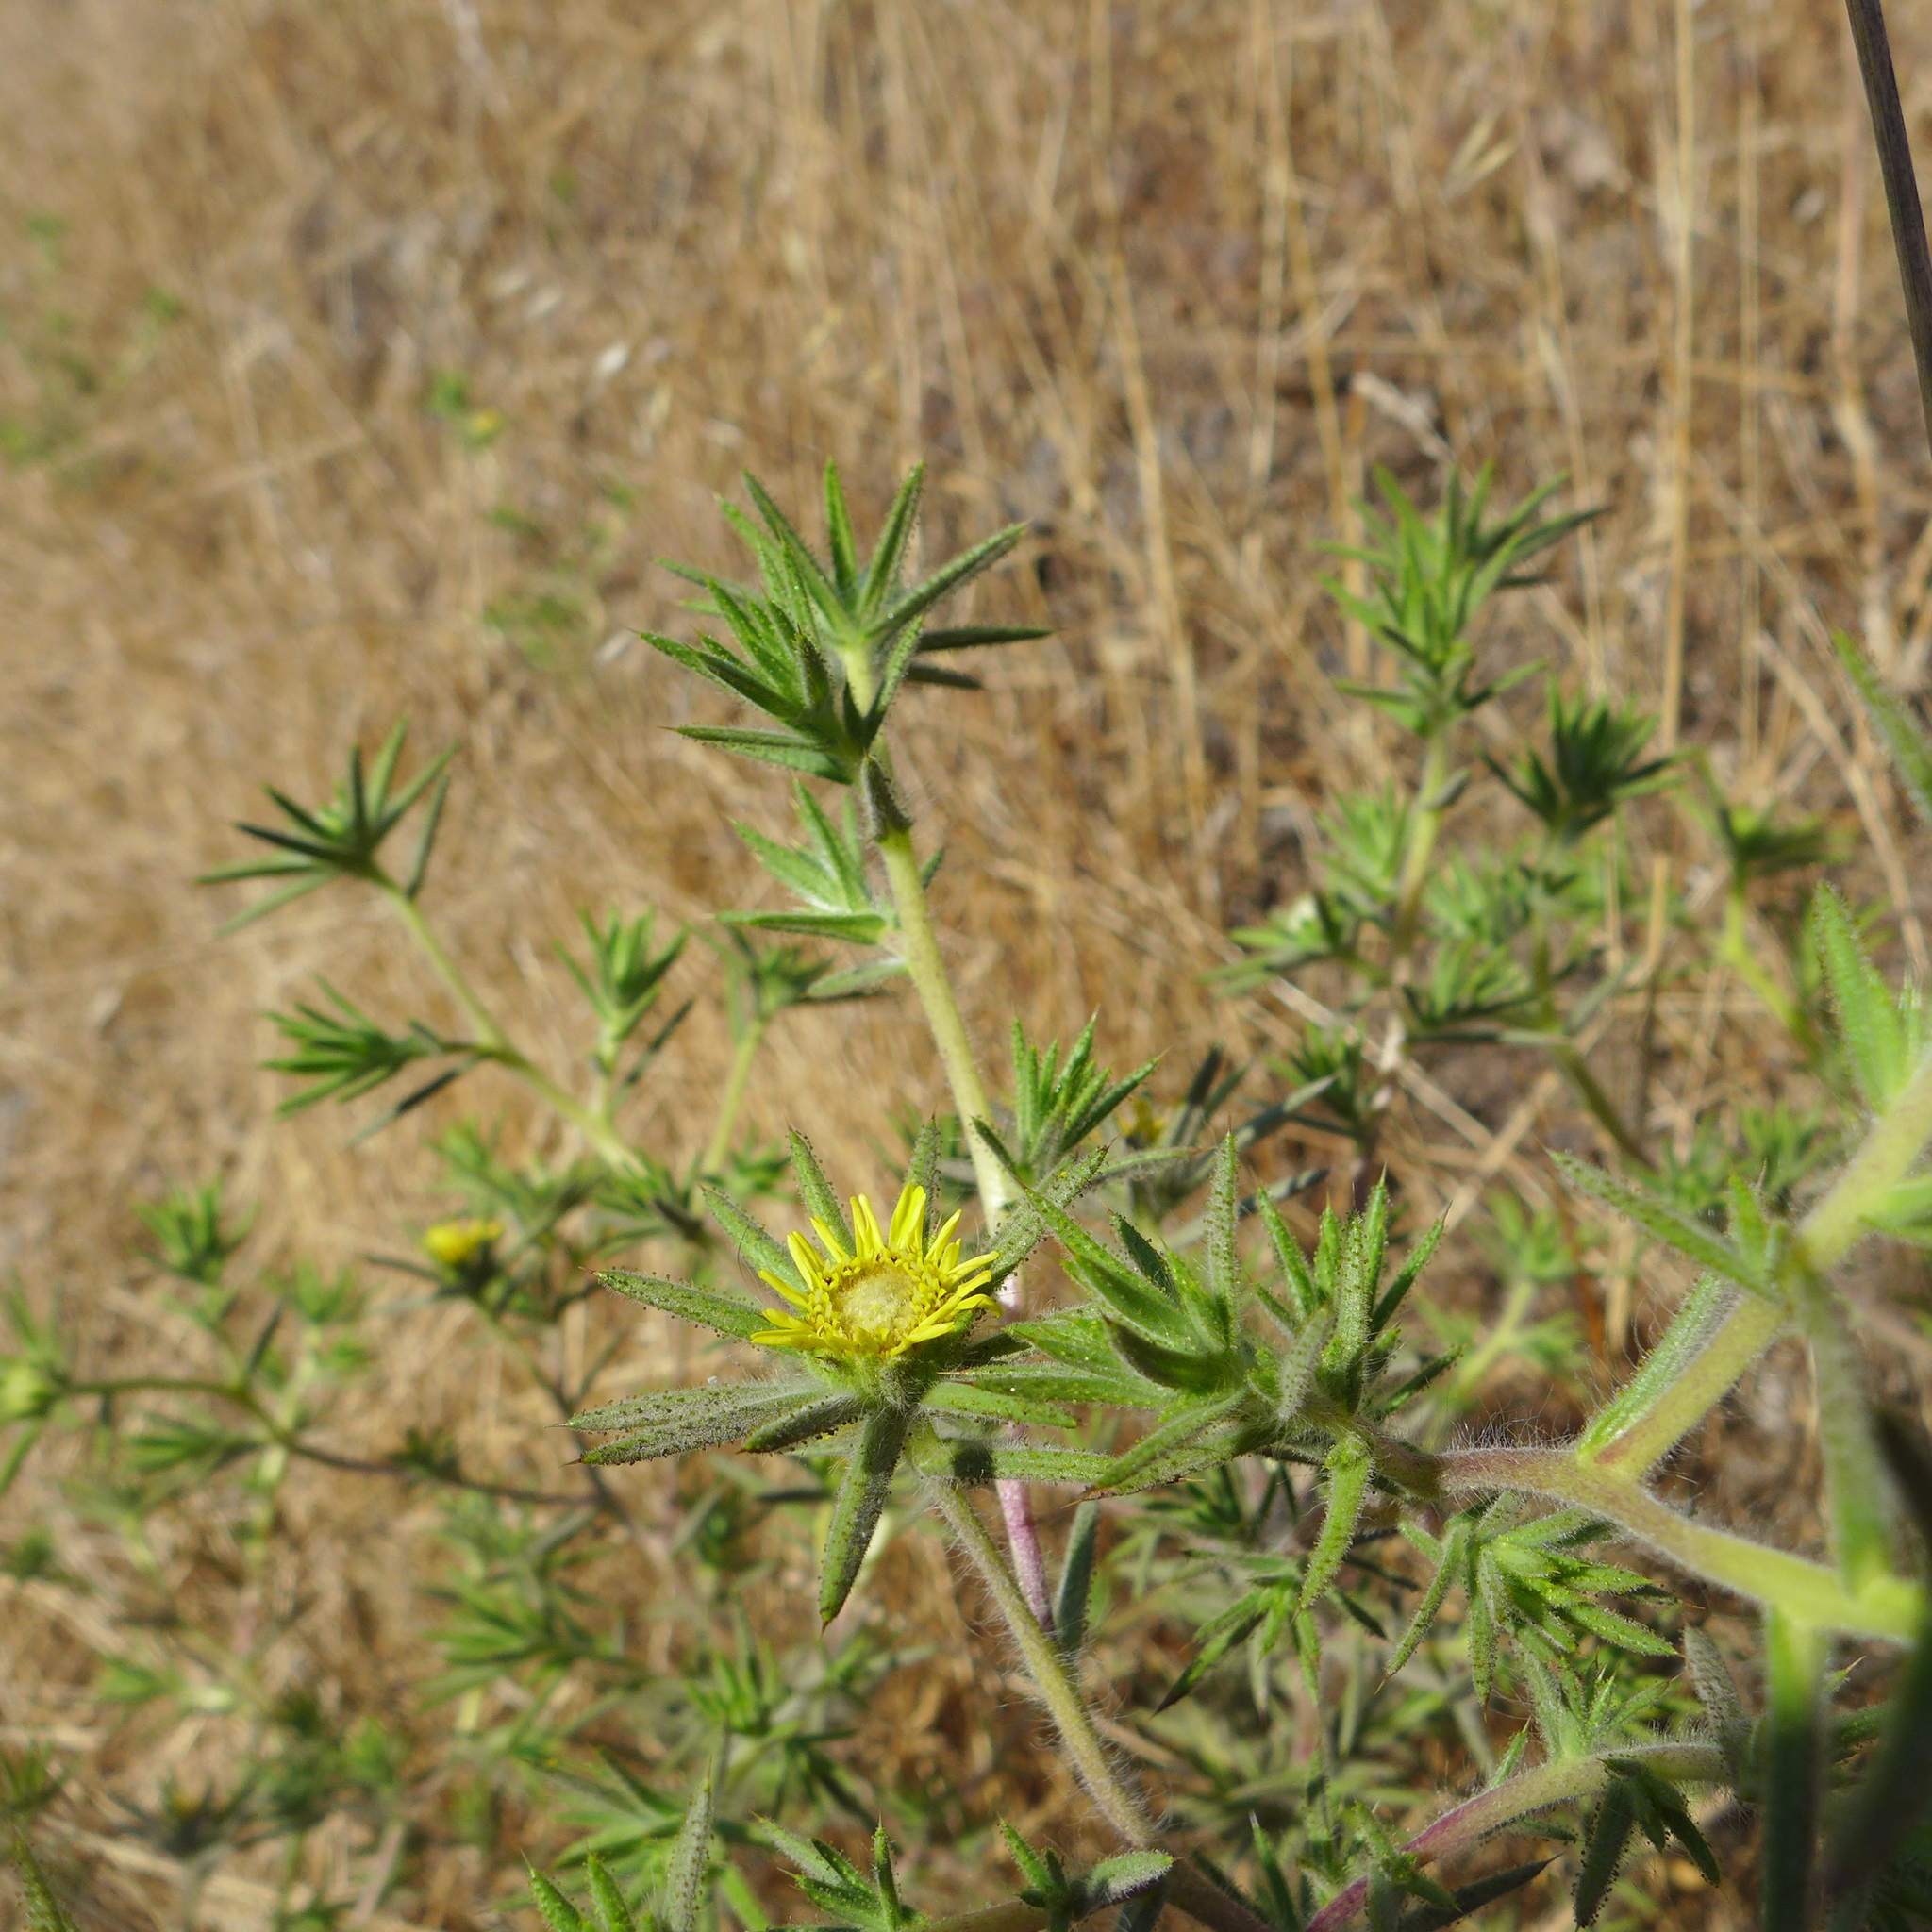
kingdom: Plantae
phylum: Tracheophyta
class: Magnoliopsida
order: Asterales
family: Asteraceae
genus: Centromadia
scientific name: Centromadia fitchii
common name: Fitch's spikeweed
